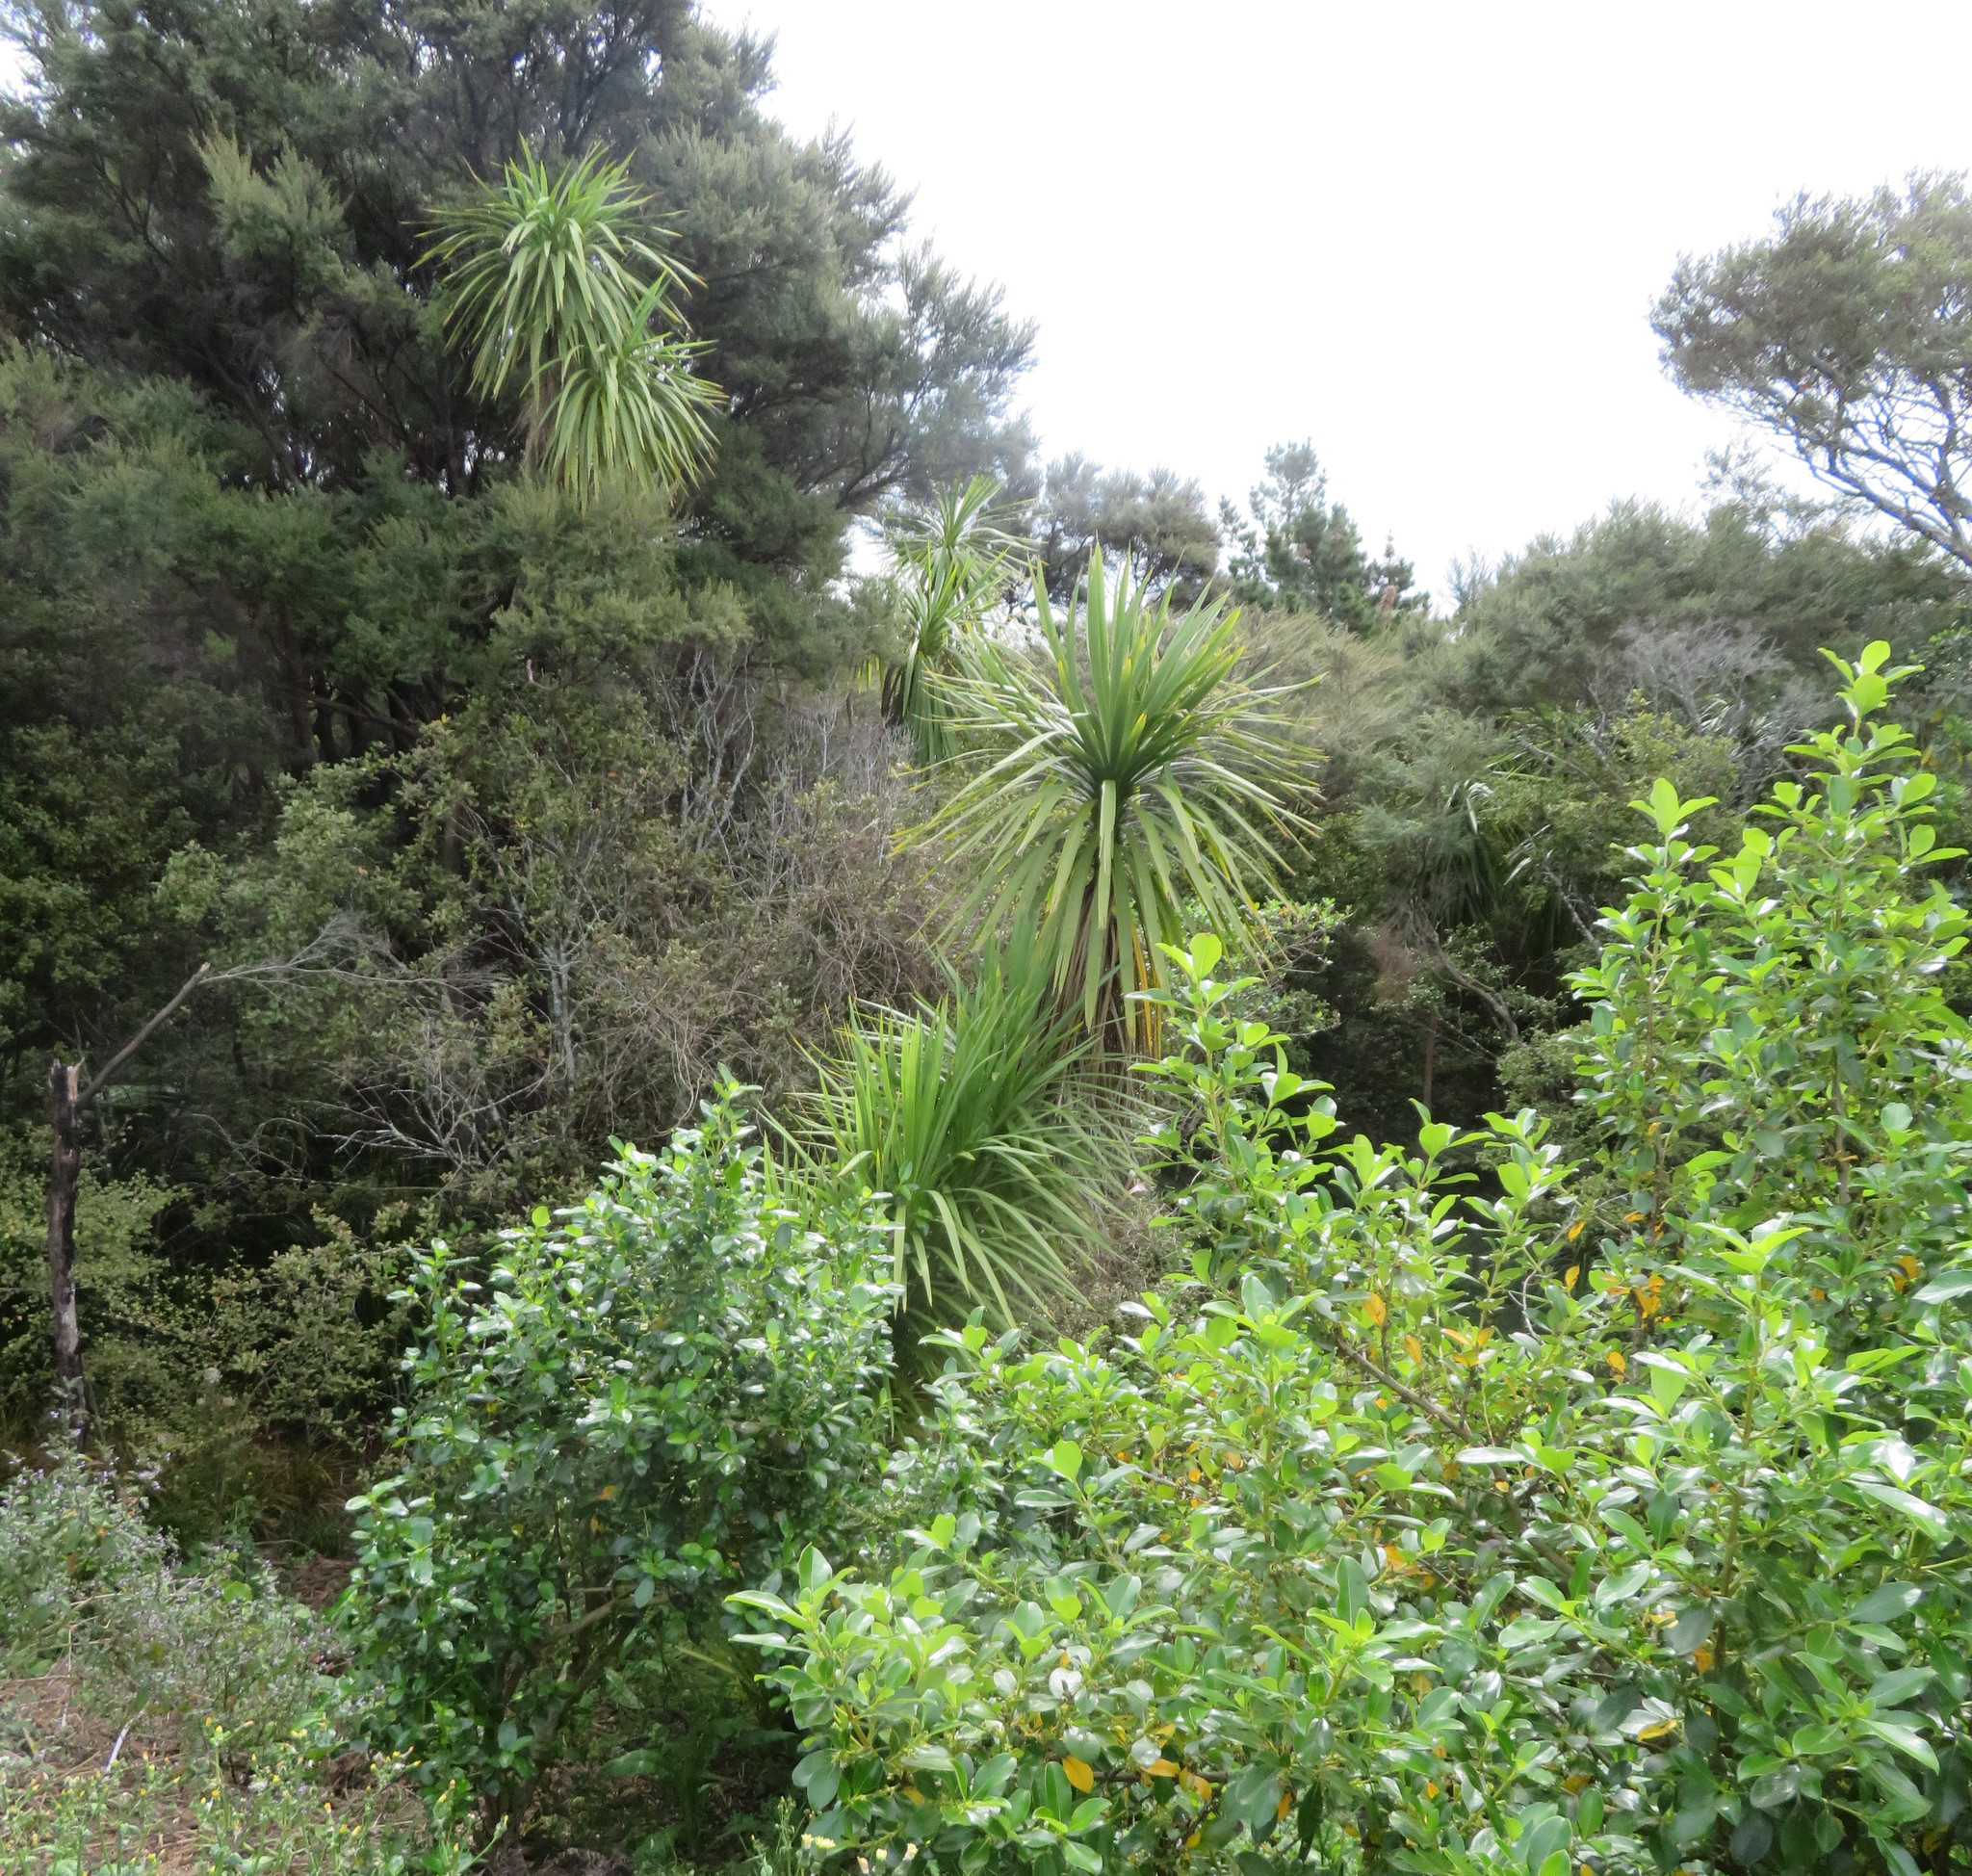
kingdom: Plantae
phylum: Tracheophyta
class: Liliopsida
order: Asparagales
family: Asparagaceae
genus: Cordyline
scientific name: Cordyline australis
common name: Cabbage-palm
